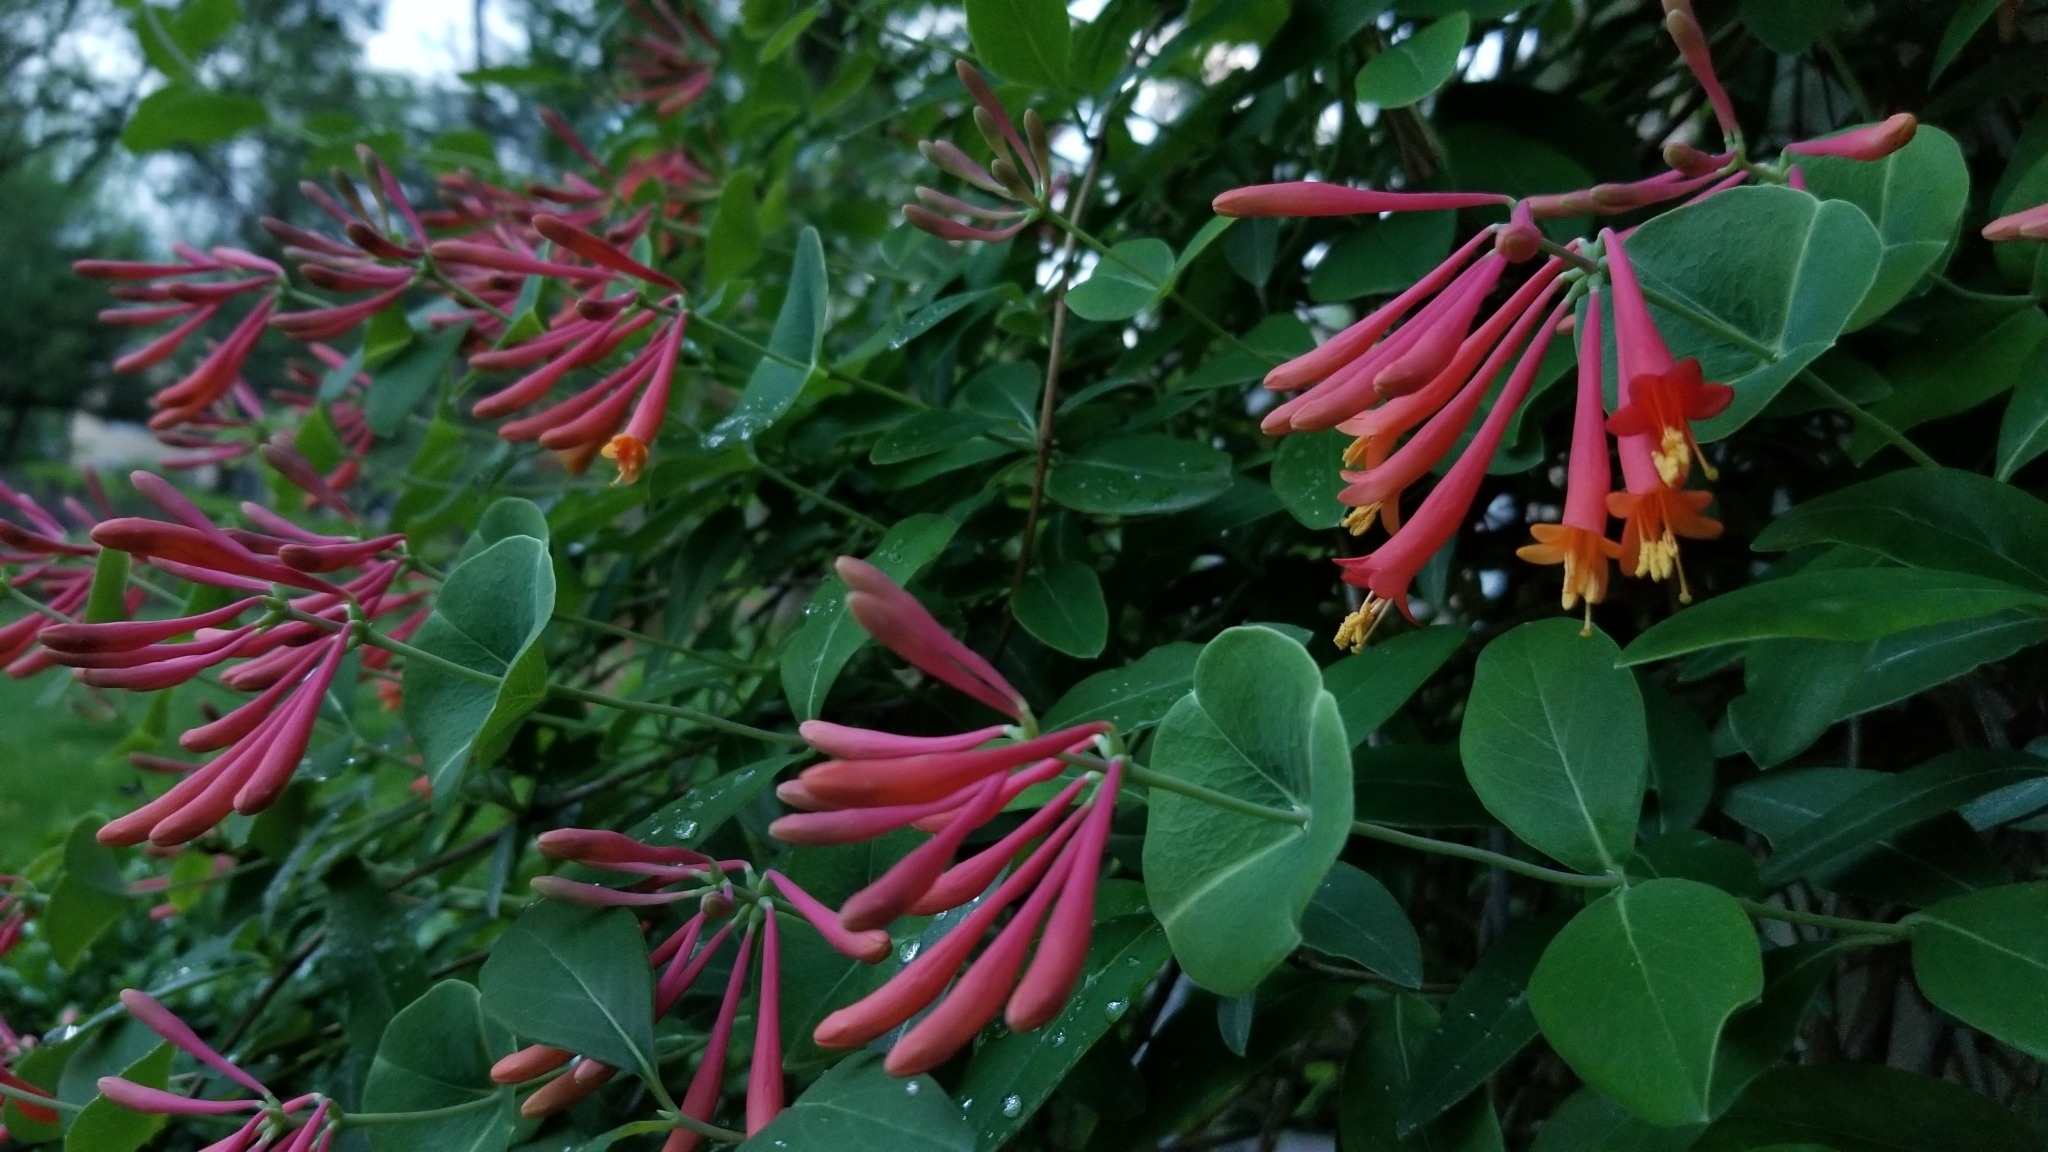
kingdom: Plantae
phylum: Tracheophyta
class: Magnoliopsida
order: Dipsacales
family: Caprifoliaceae
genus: Lonicera
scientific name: Lonicera sempervirens
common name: Coral honeysuckle
